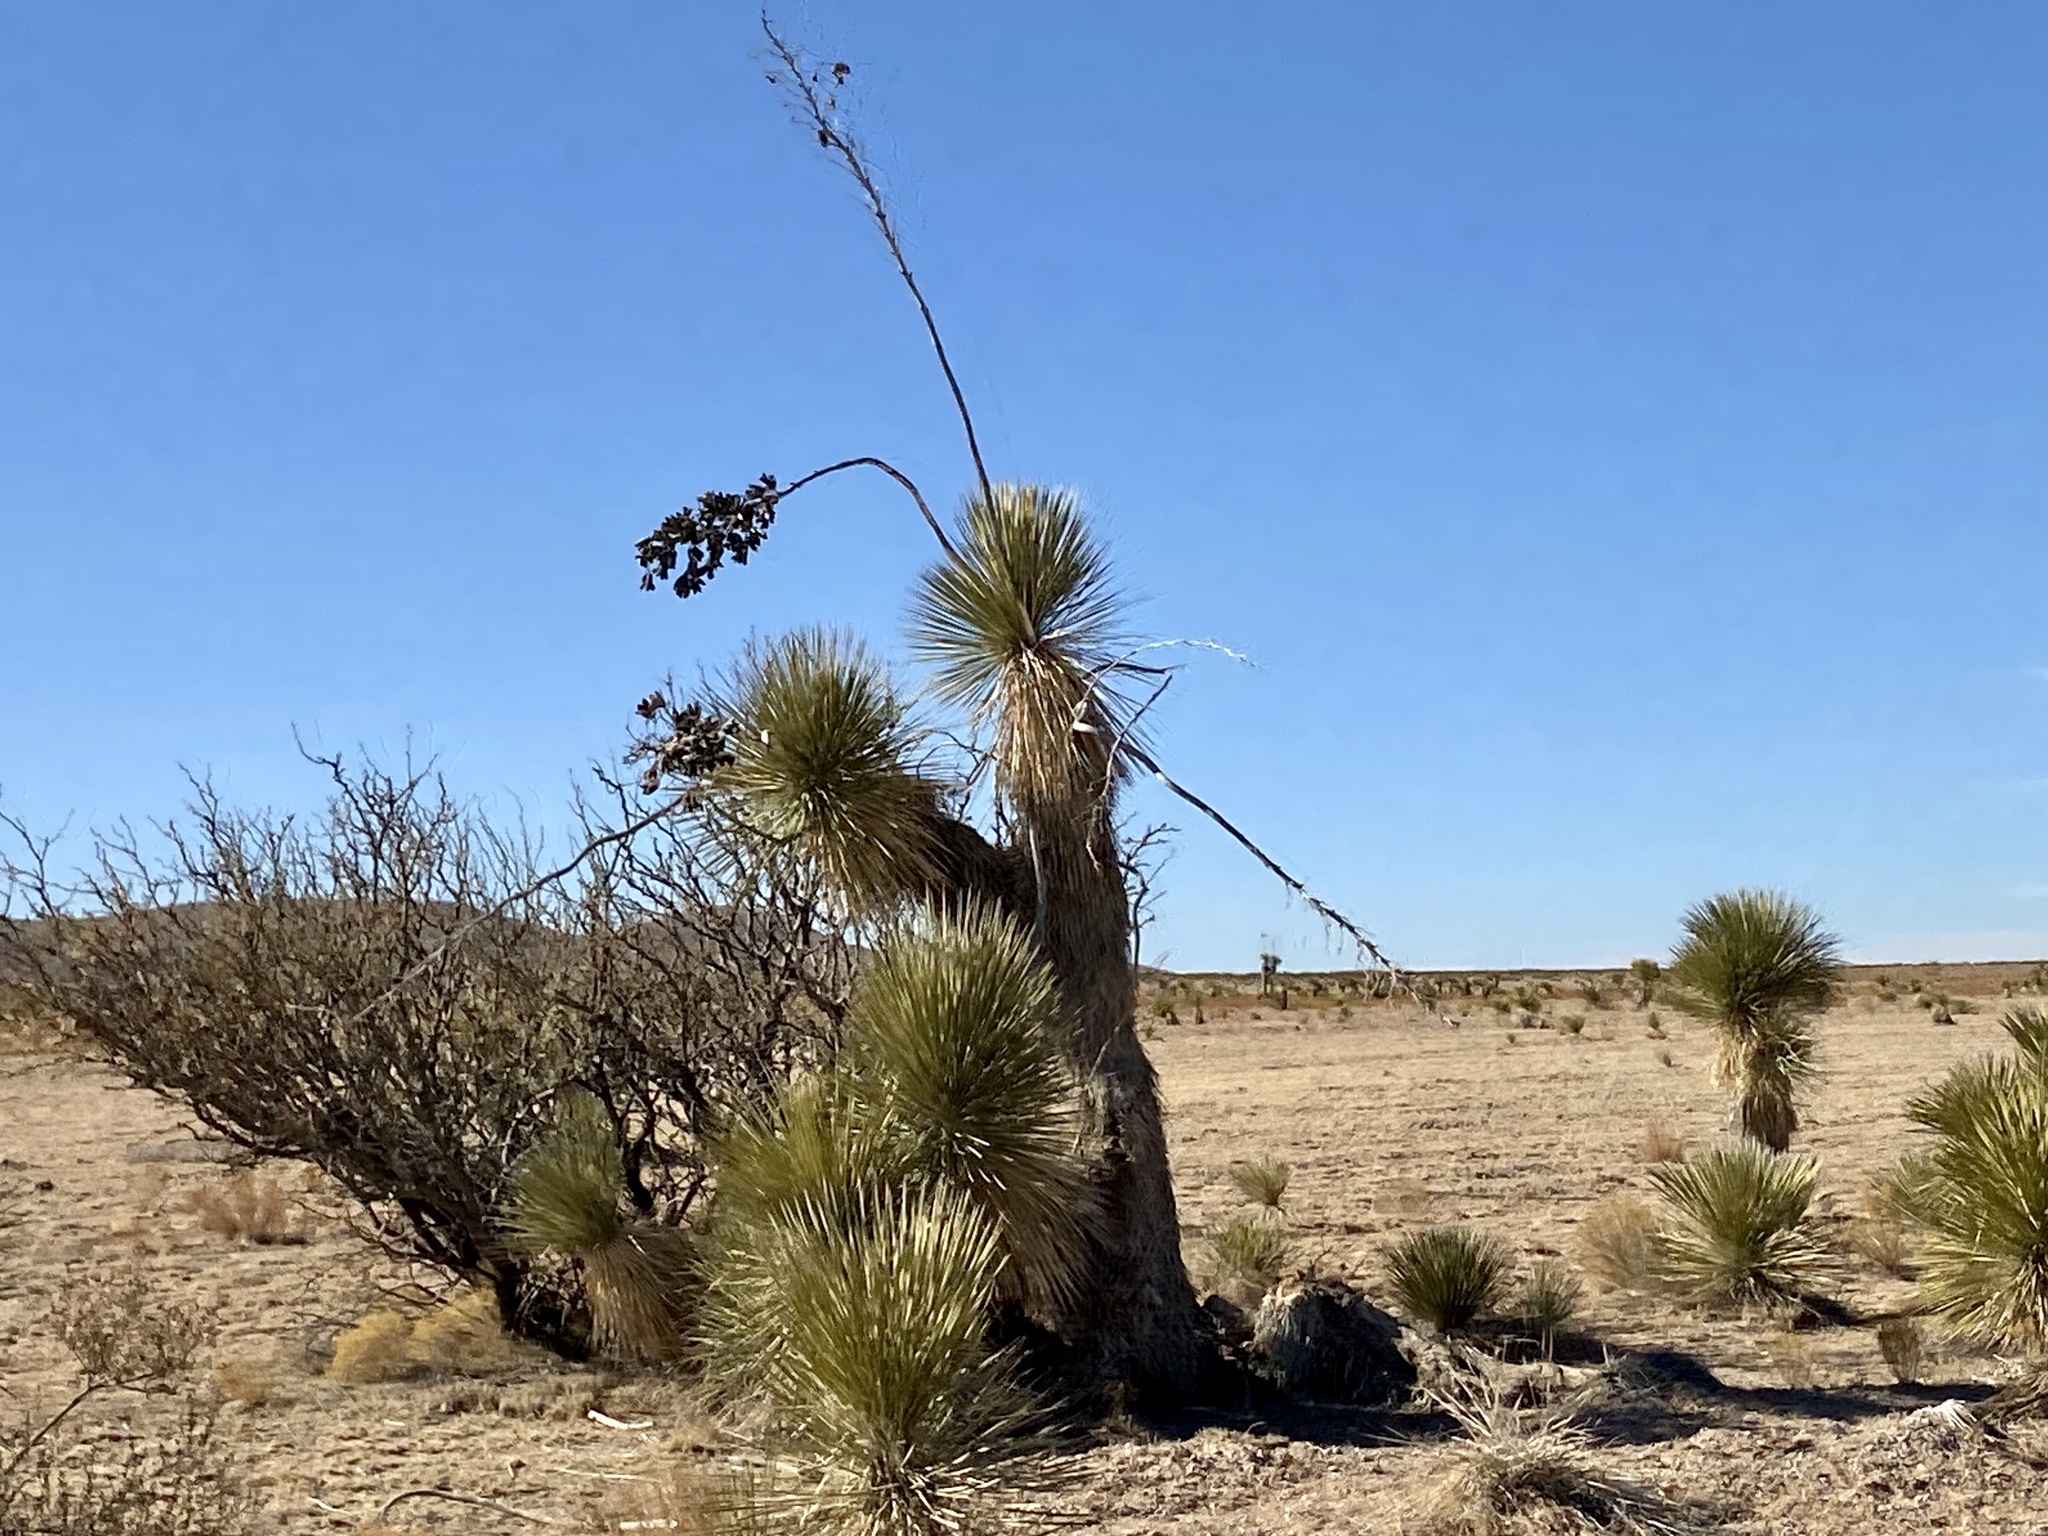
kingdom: Plantae
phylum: Tracheophyta
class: Liliopsida
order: Asparagales
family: Asparagaceae
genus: Yucca
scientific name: Yucca elata
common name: Palmella
